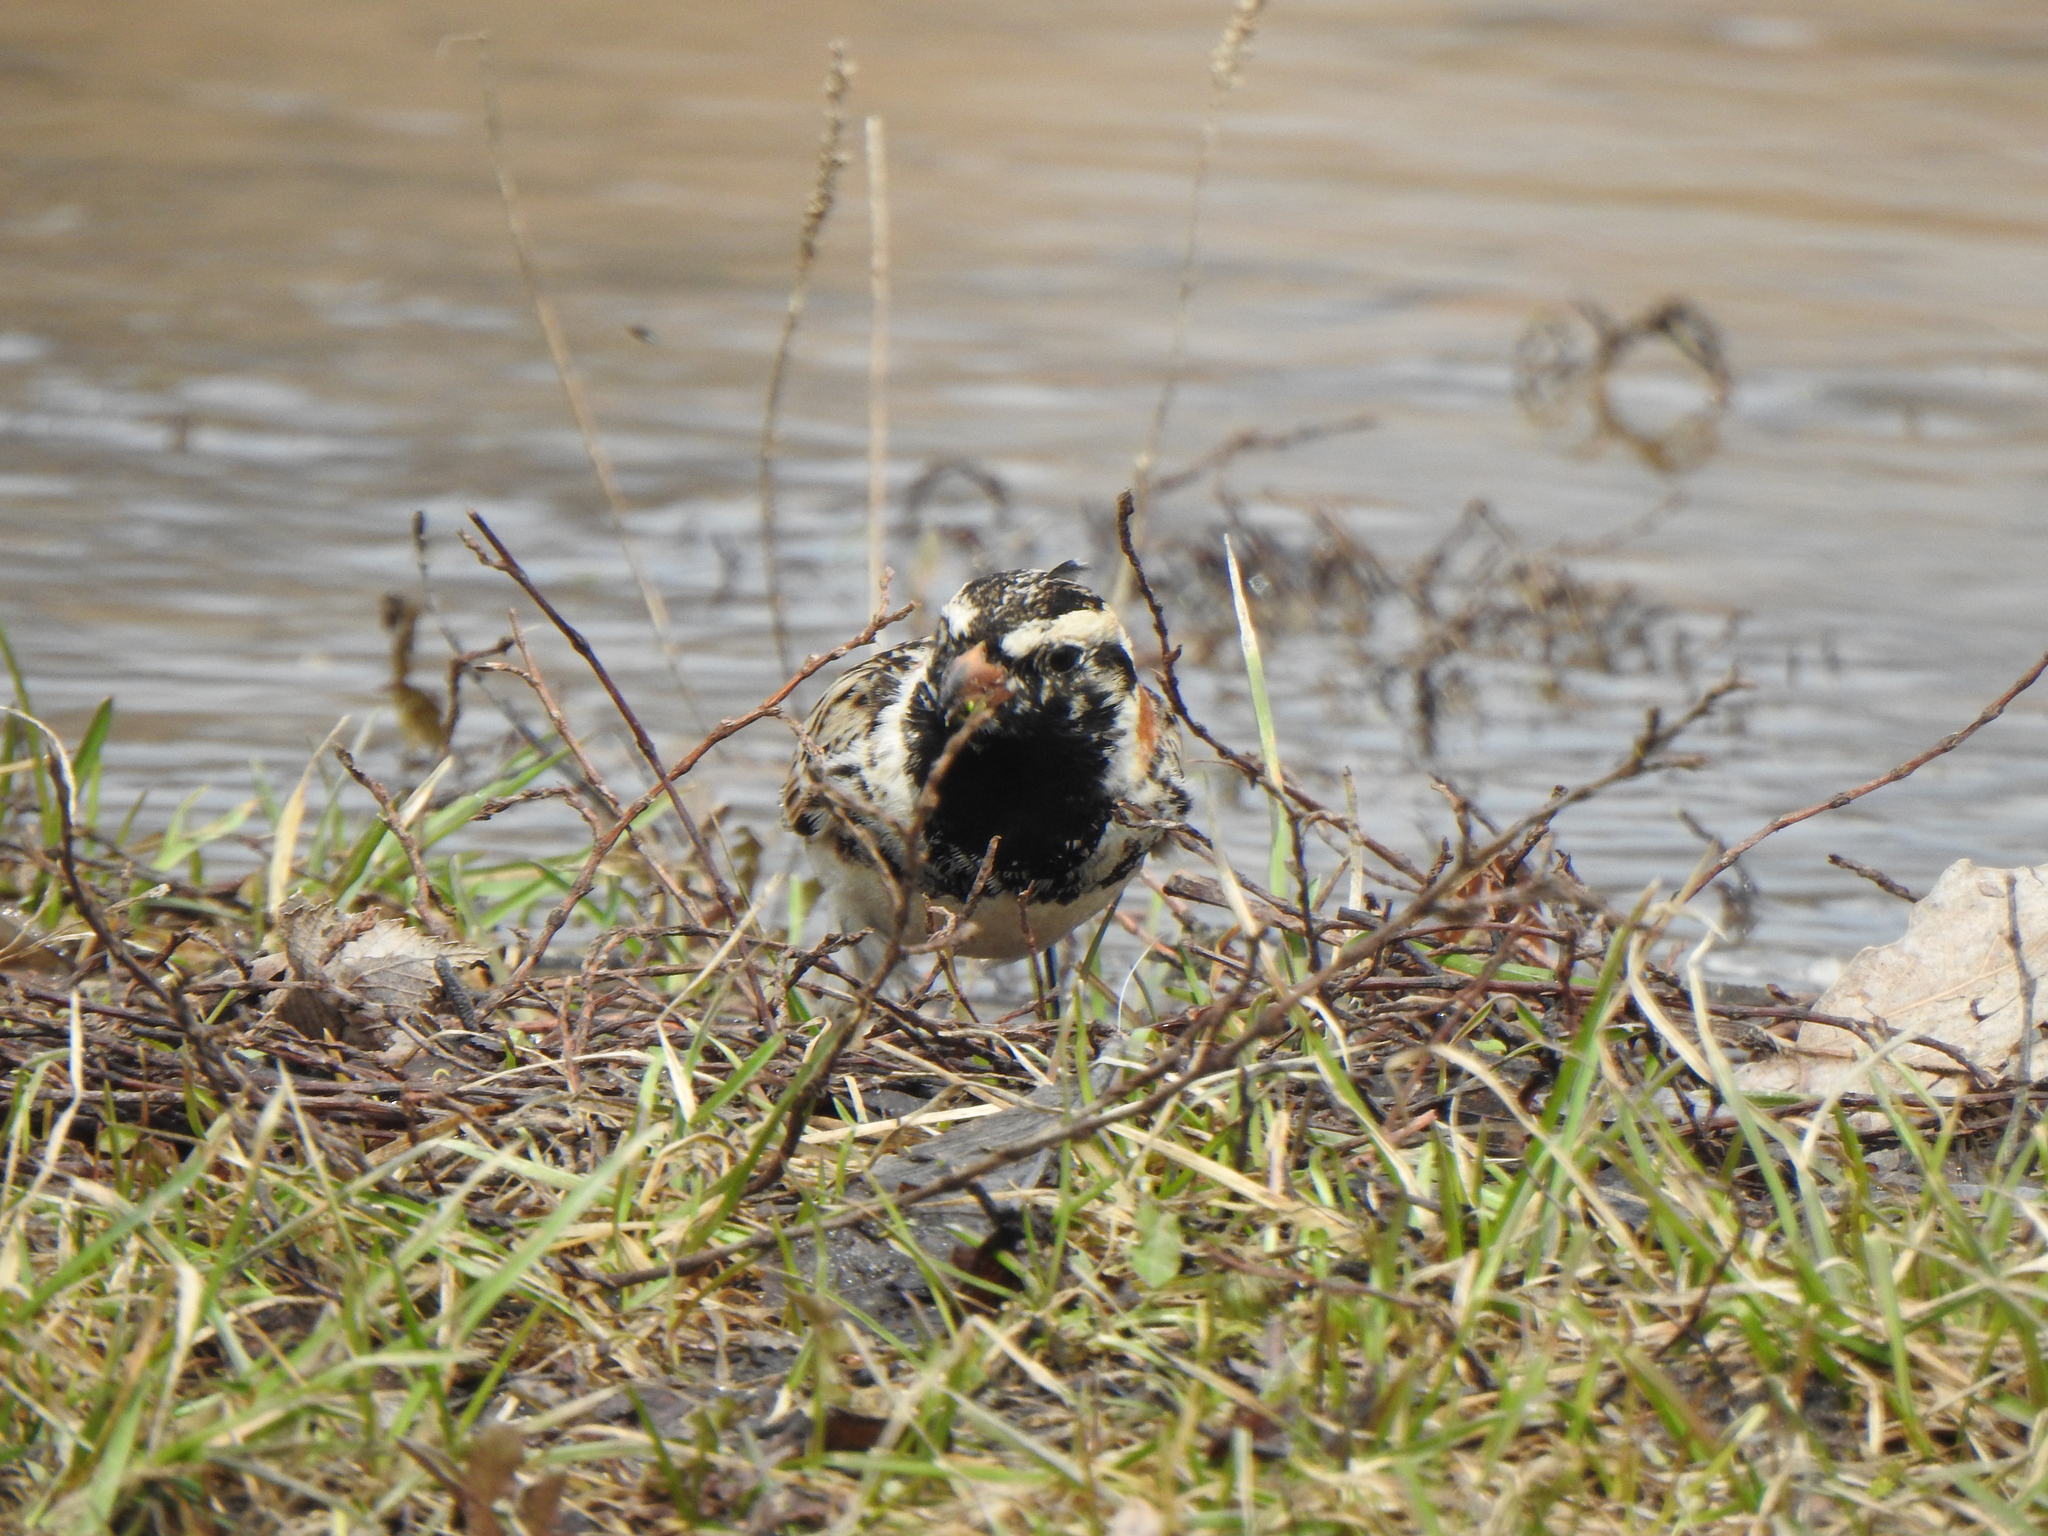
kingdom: Animalia
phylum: Chordata
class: Aves
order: Passeriformes
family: Calcariidae
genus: Calcarius
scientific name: Calcarius lapponicus
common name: Lapland longspur
